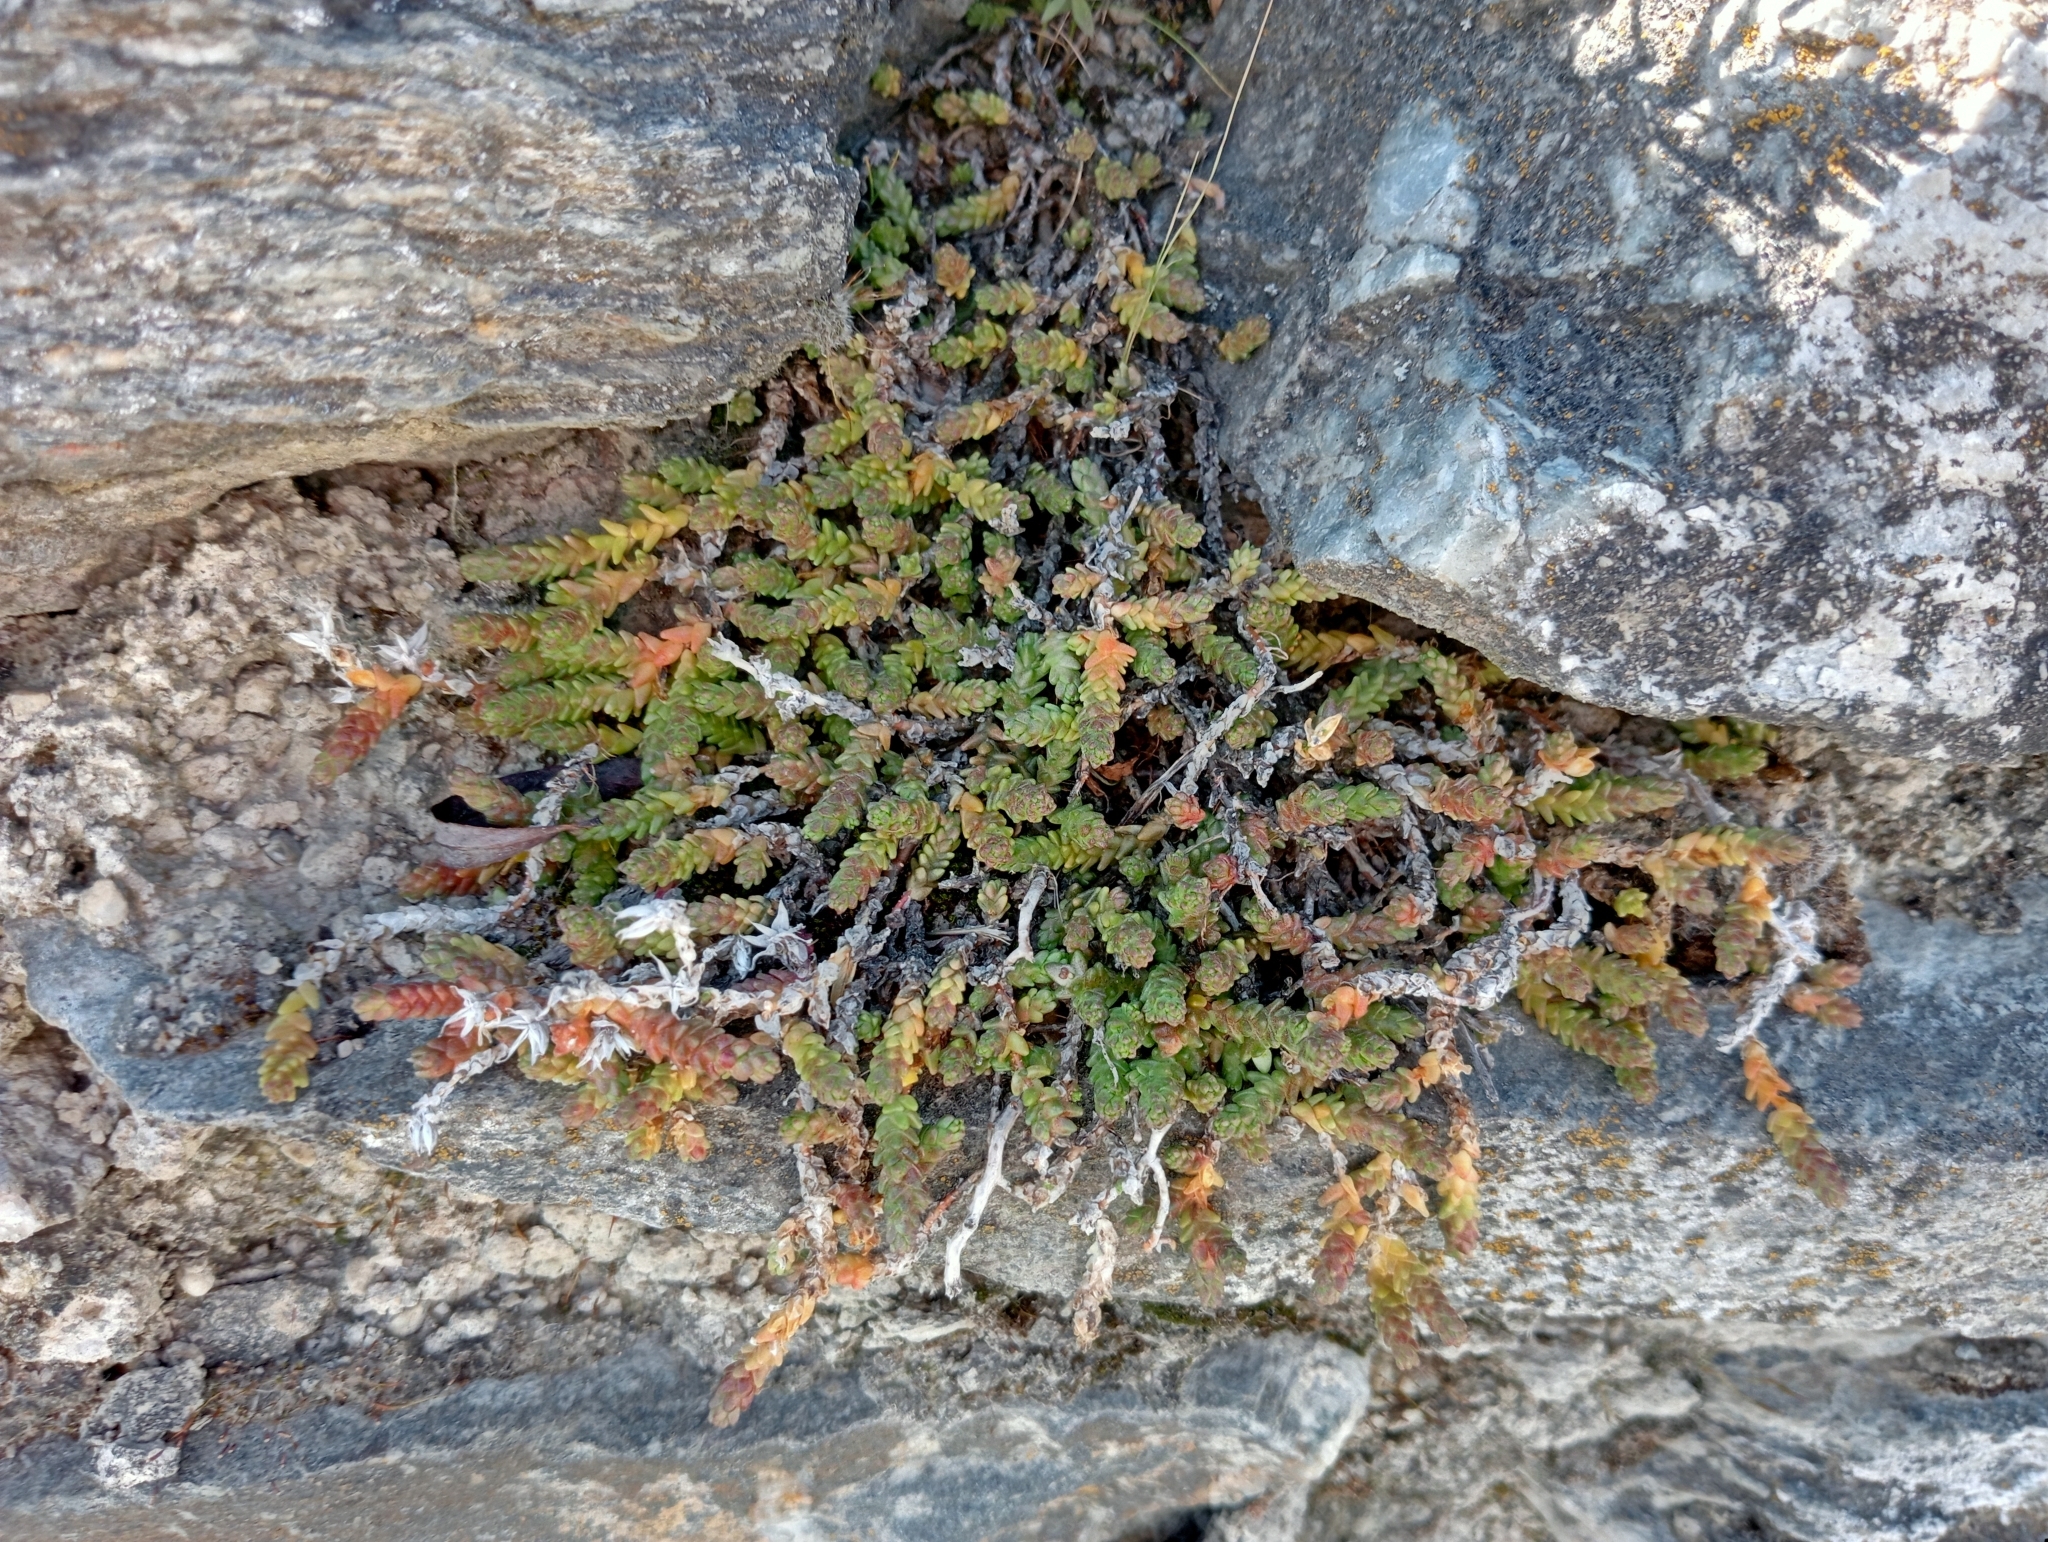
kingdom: Plantae
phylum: Tracheophyta
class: Magnoliopsida
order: Saxifragales
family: Crassulaceae
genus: Sedum
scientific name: Sedum acre
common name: Biting stonecrop
